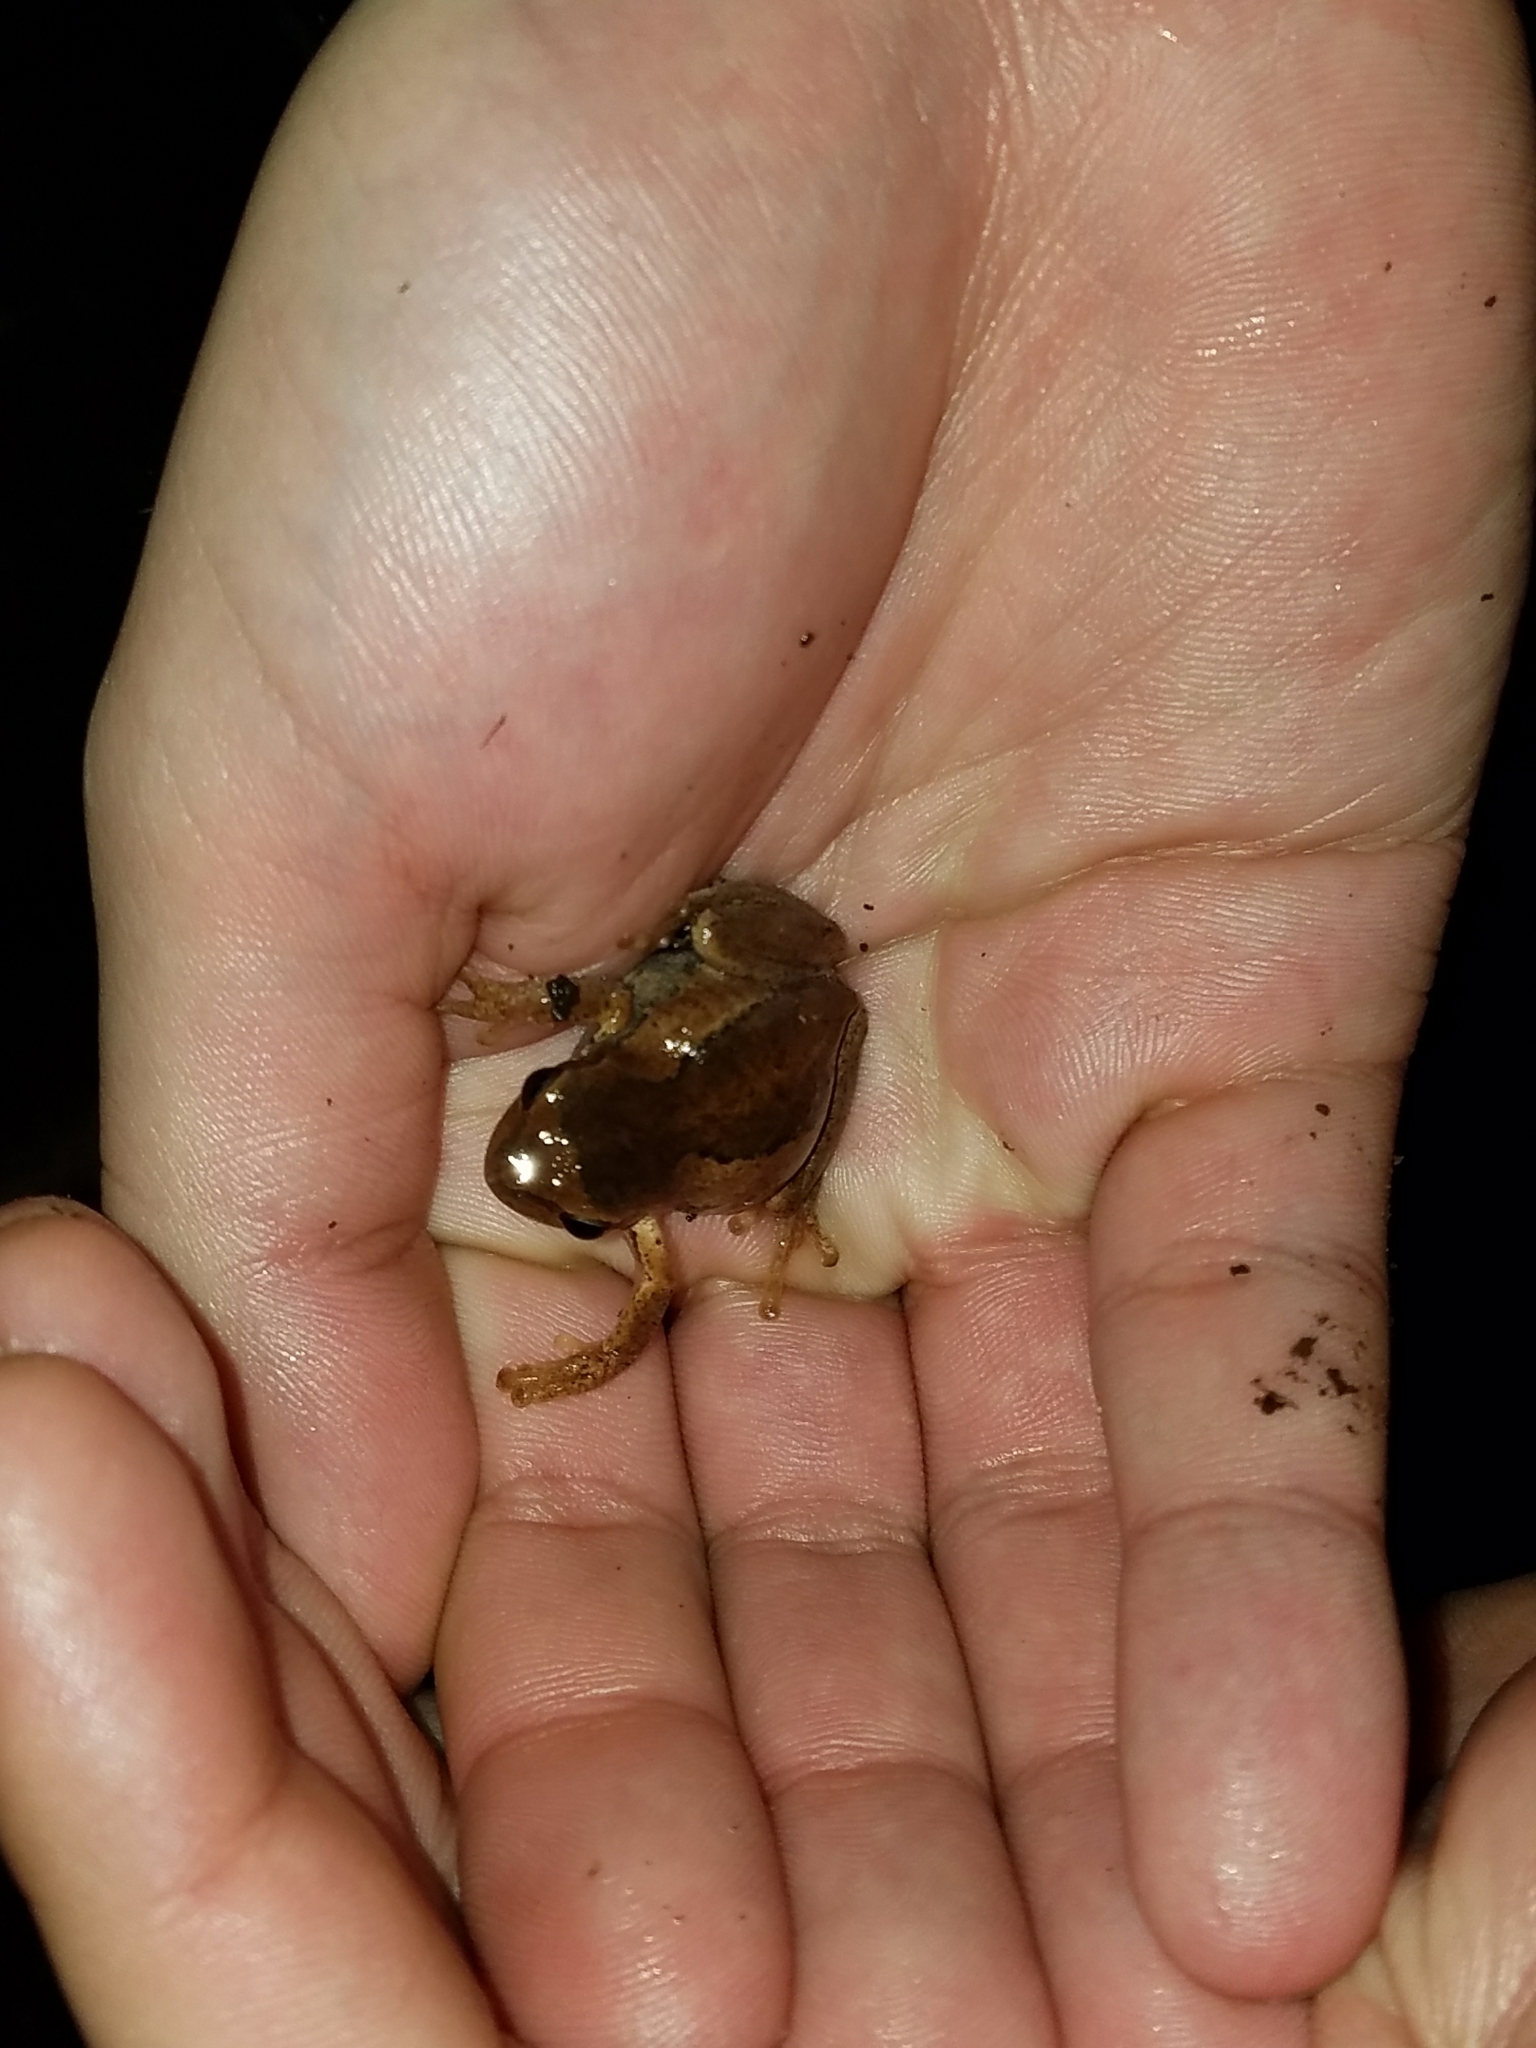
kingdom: Animalia
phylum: Chordata
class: Amphibia
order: Anura
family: Pelodryadidae
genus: Litoria
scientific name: Litoria ewingii
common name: Southern brown tree frog
